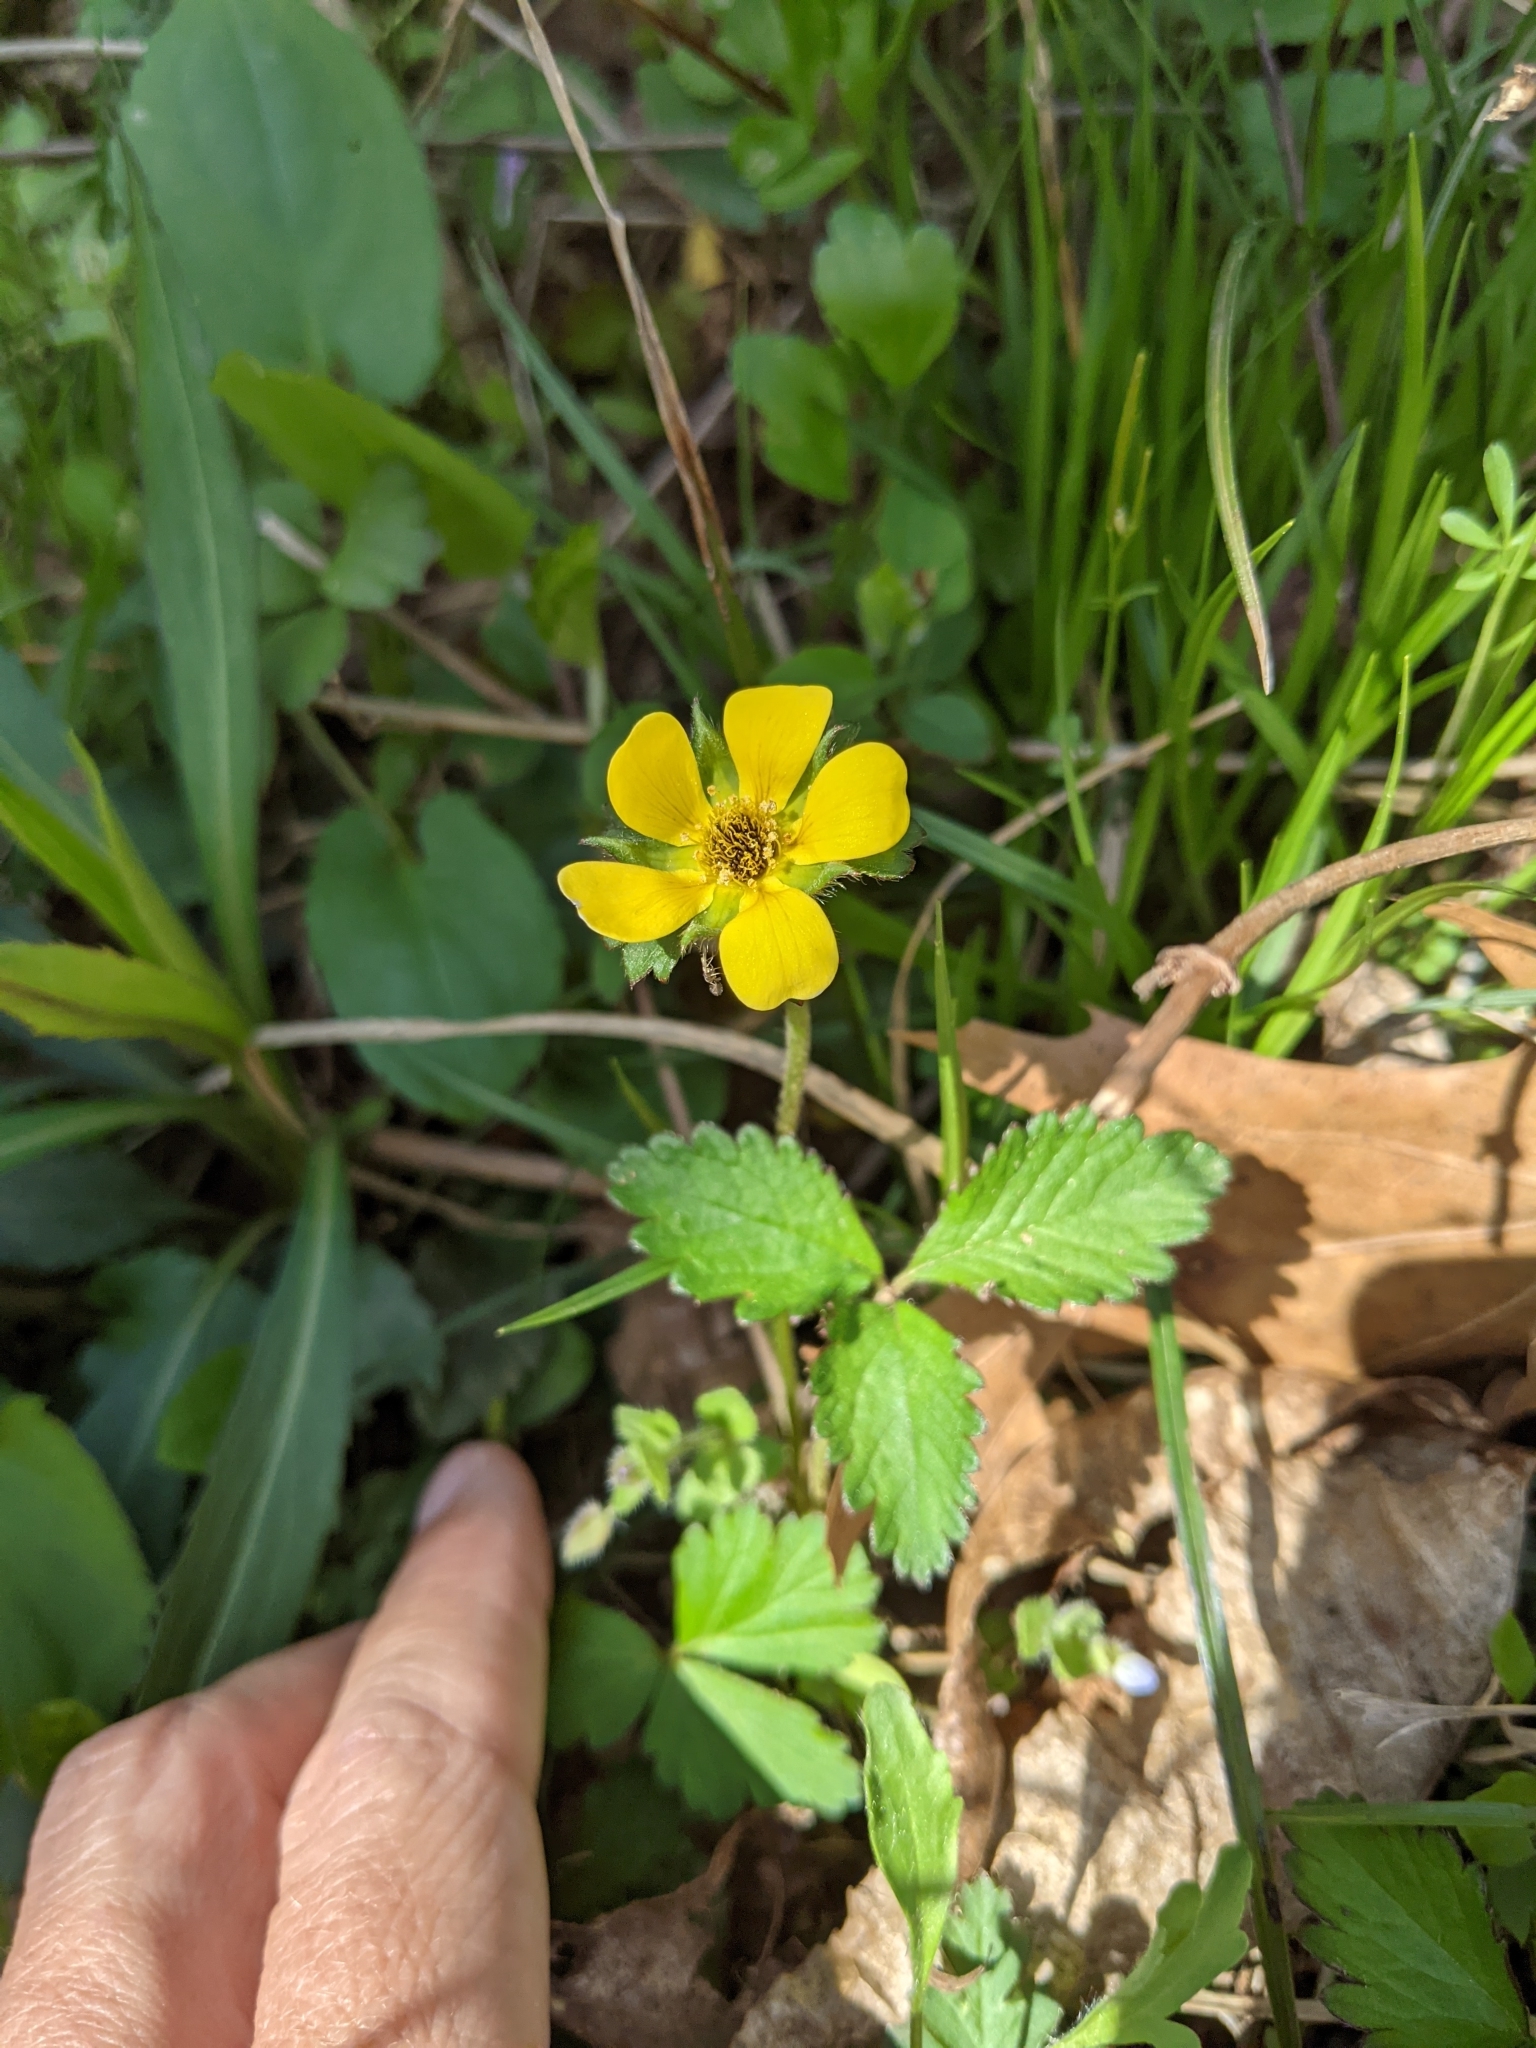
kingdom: Plantae
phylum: Tracheophyta
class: Magnoliopsida
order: Rosales
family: Rosaceae
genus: Potentilla
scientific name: Potentilla indica
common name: Yellow-flowered strawberry
